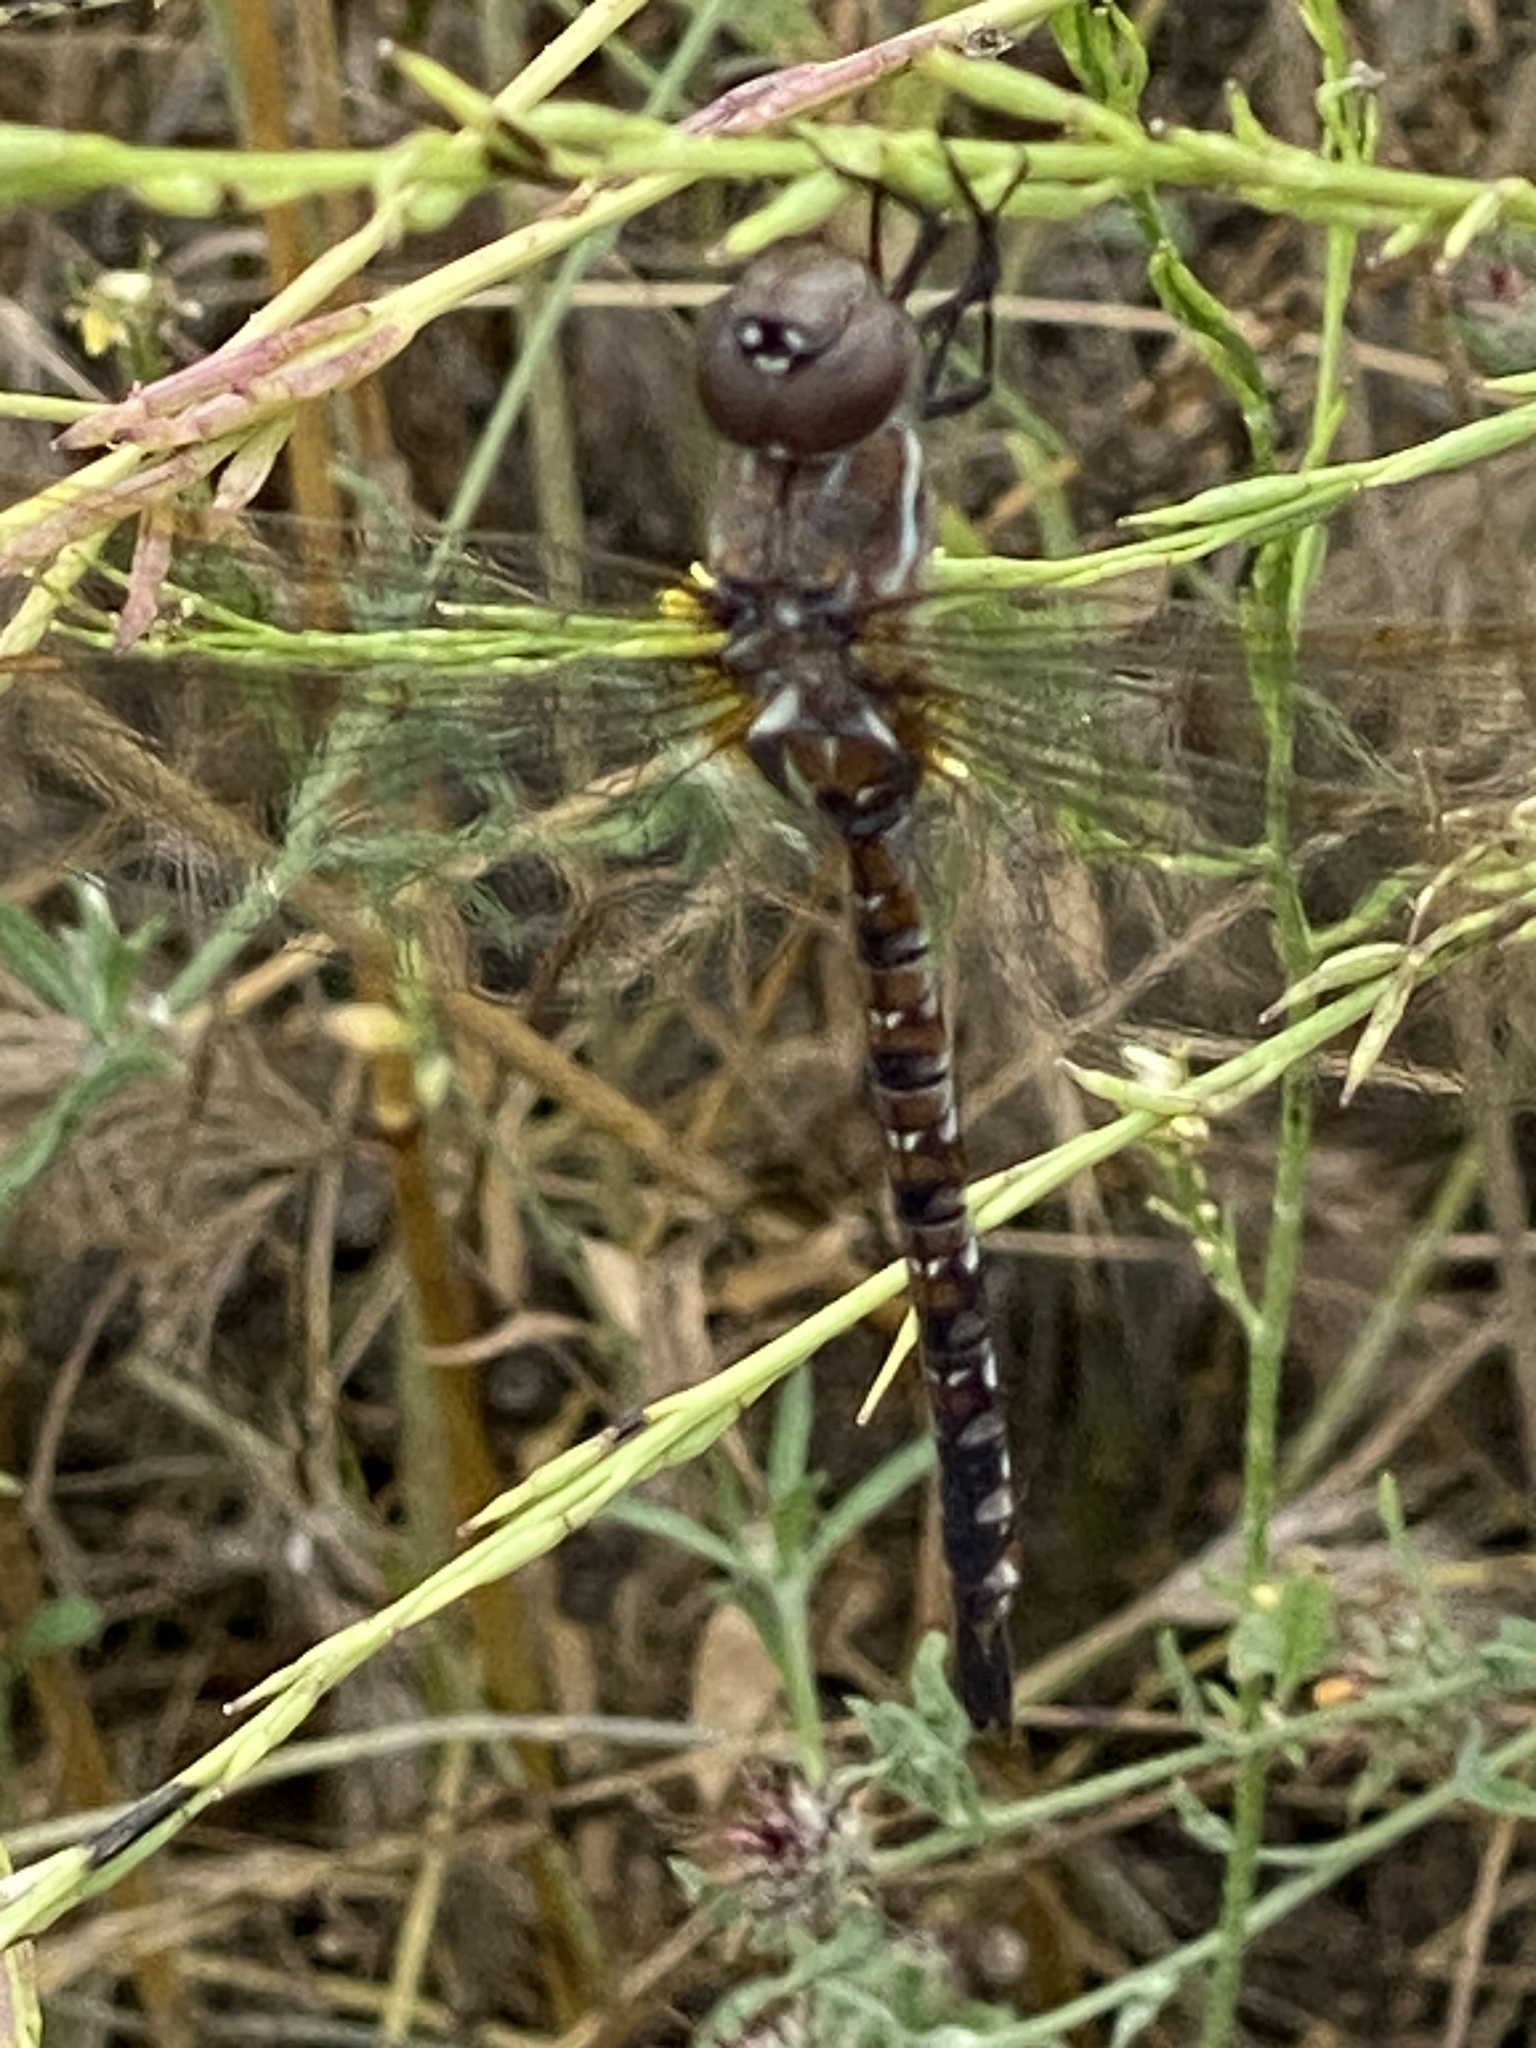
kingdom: Animalia
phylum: Arthropoda
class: Insecta
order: Odonata
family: Aeshnidae
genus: Rhionaeschna
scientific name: Rhionaeschna multicolor
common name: Blue-eyed darner
